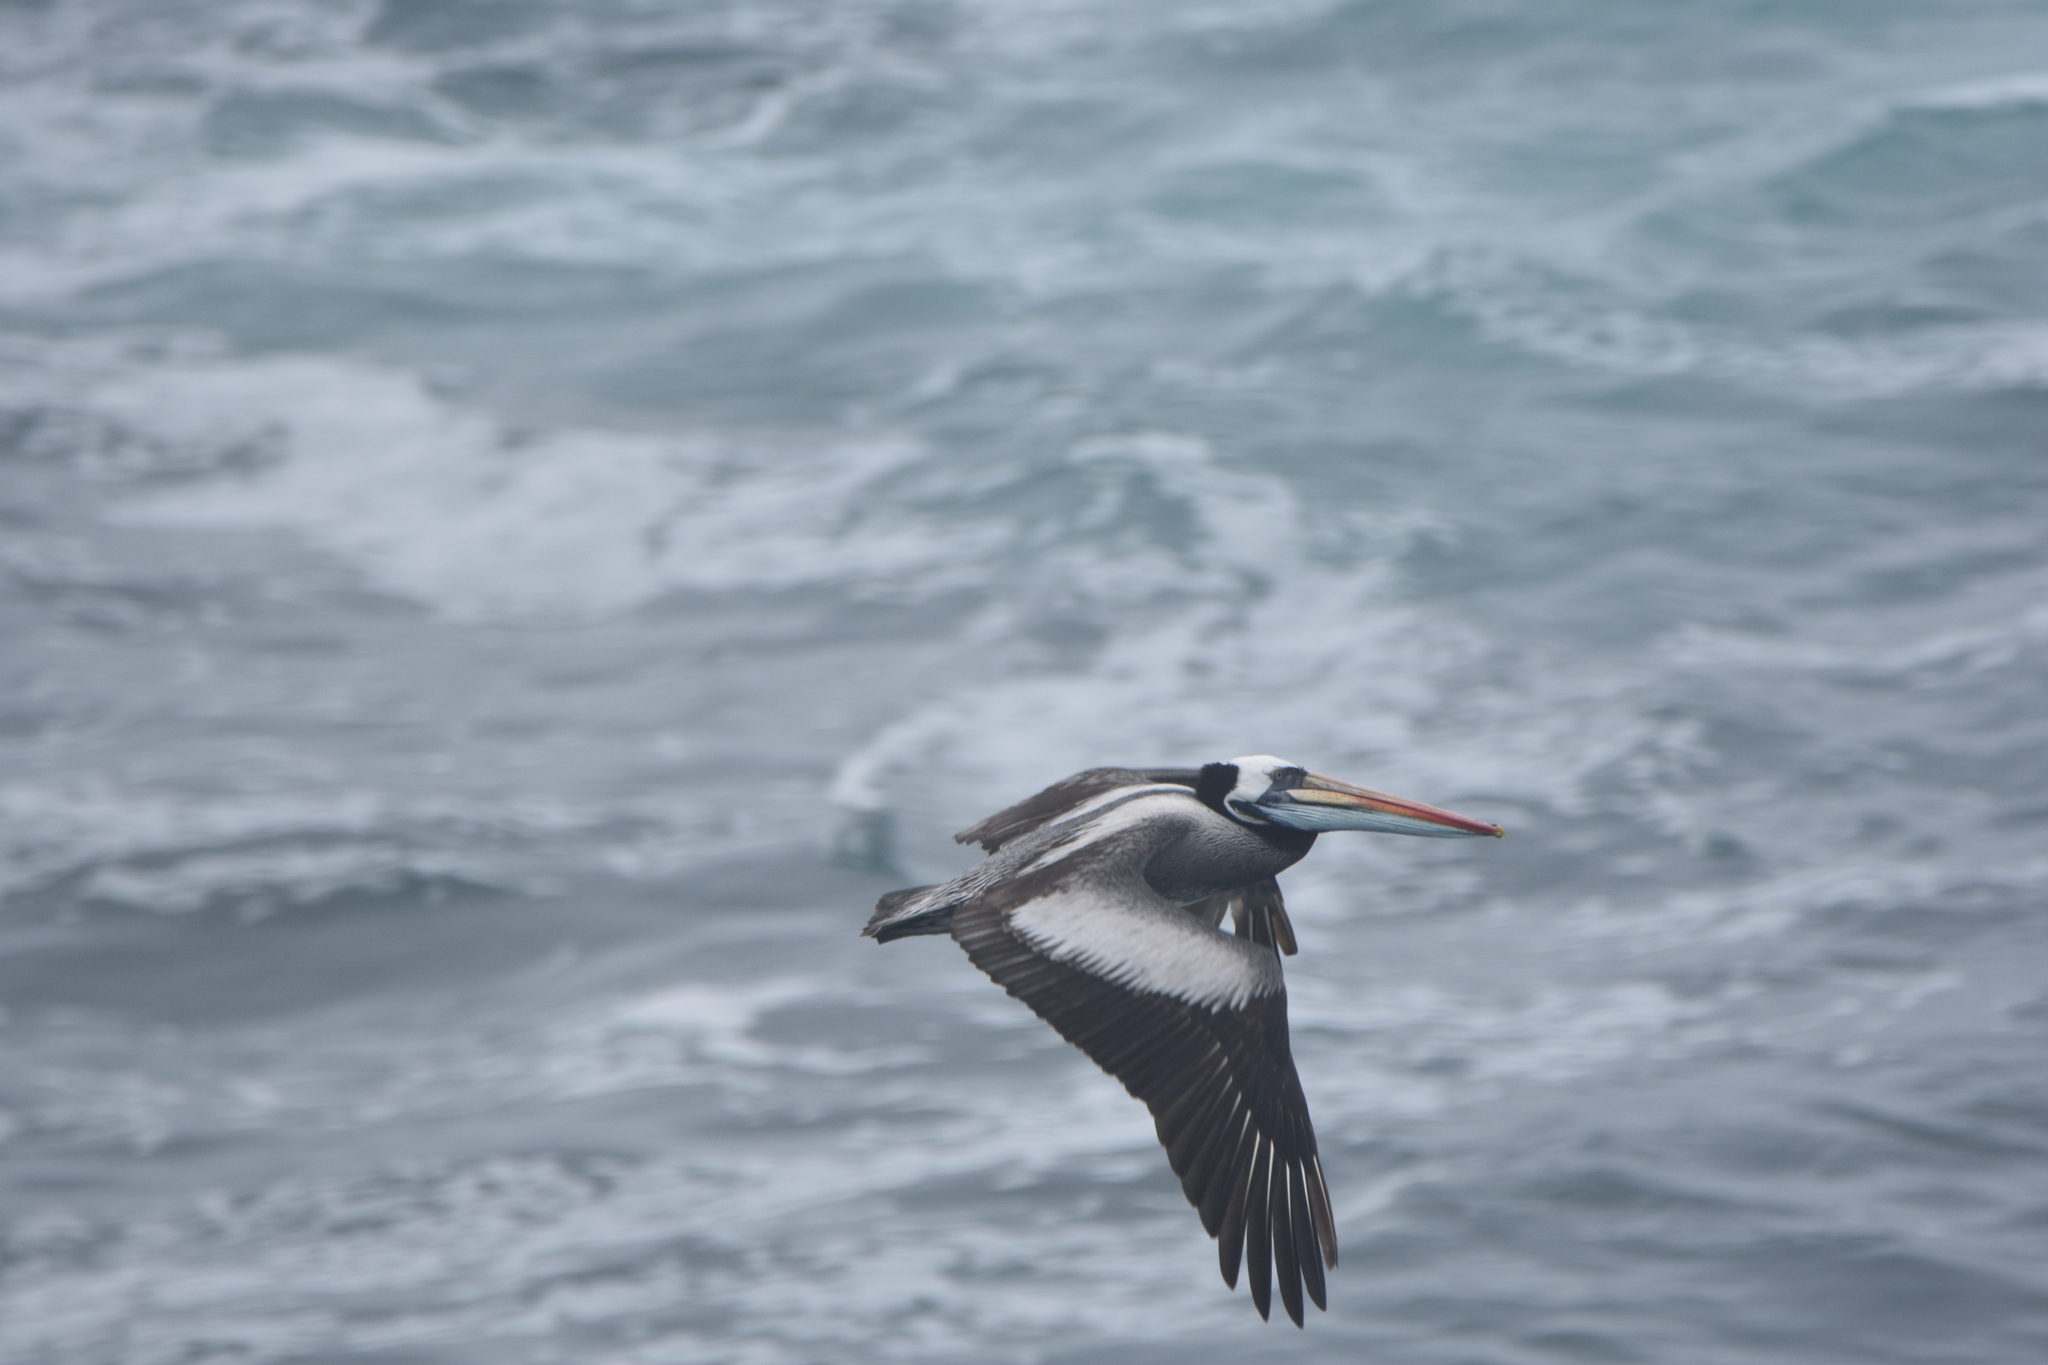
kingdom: Animalia
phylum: Chordata
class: Aves
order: Pelecaniformes
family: Pelecanidae
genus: Pelecanus
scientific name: Pelecanus thagus
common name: Peruvian pelican
